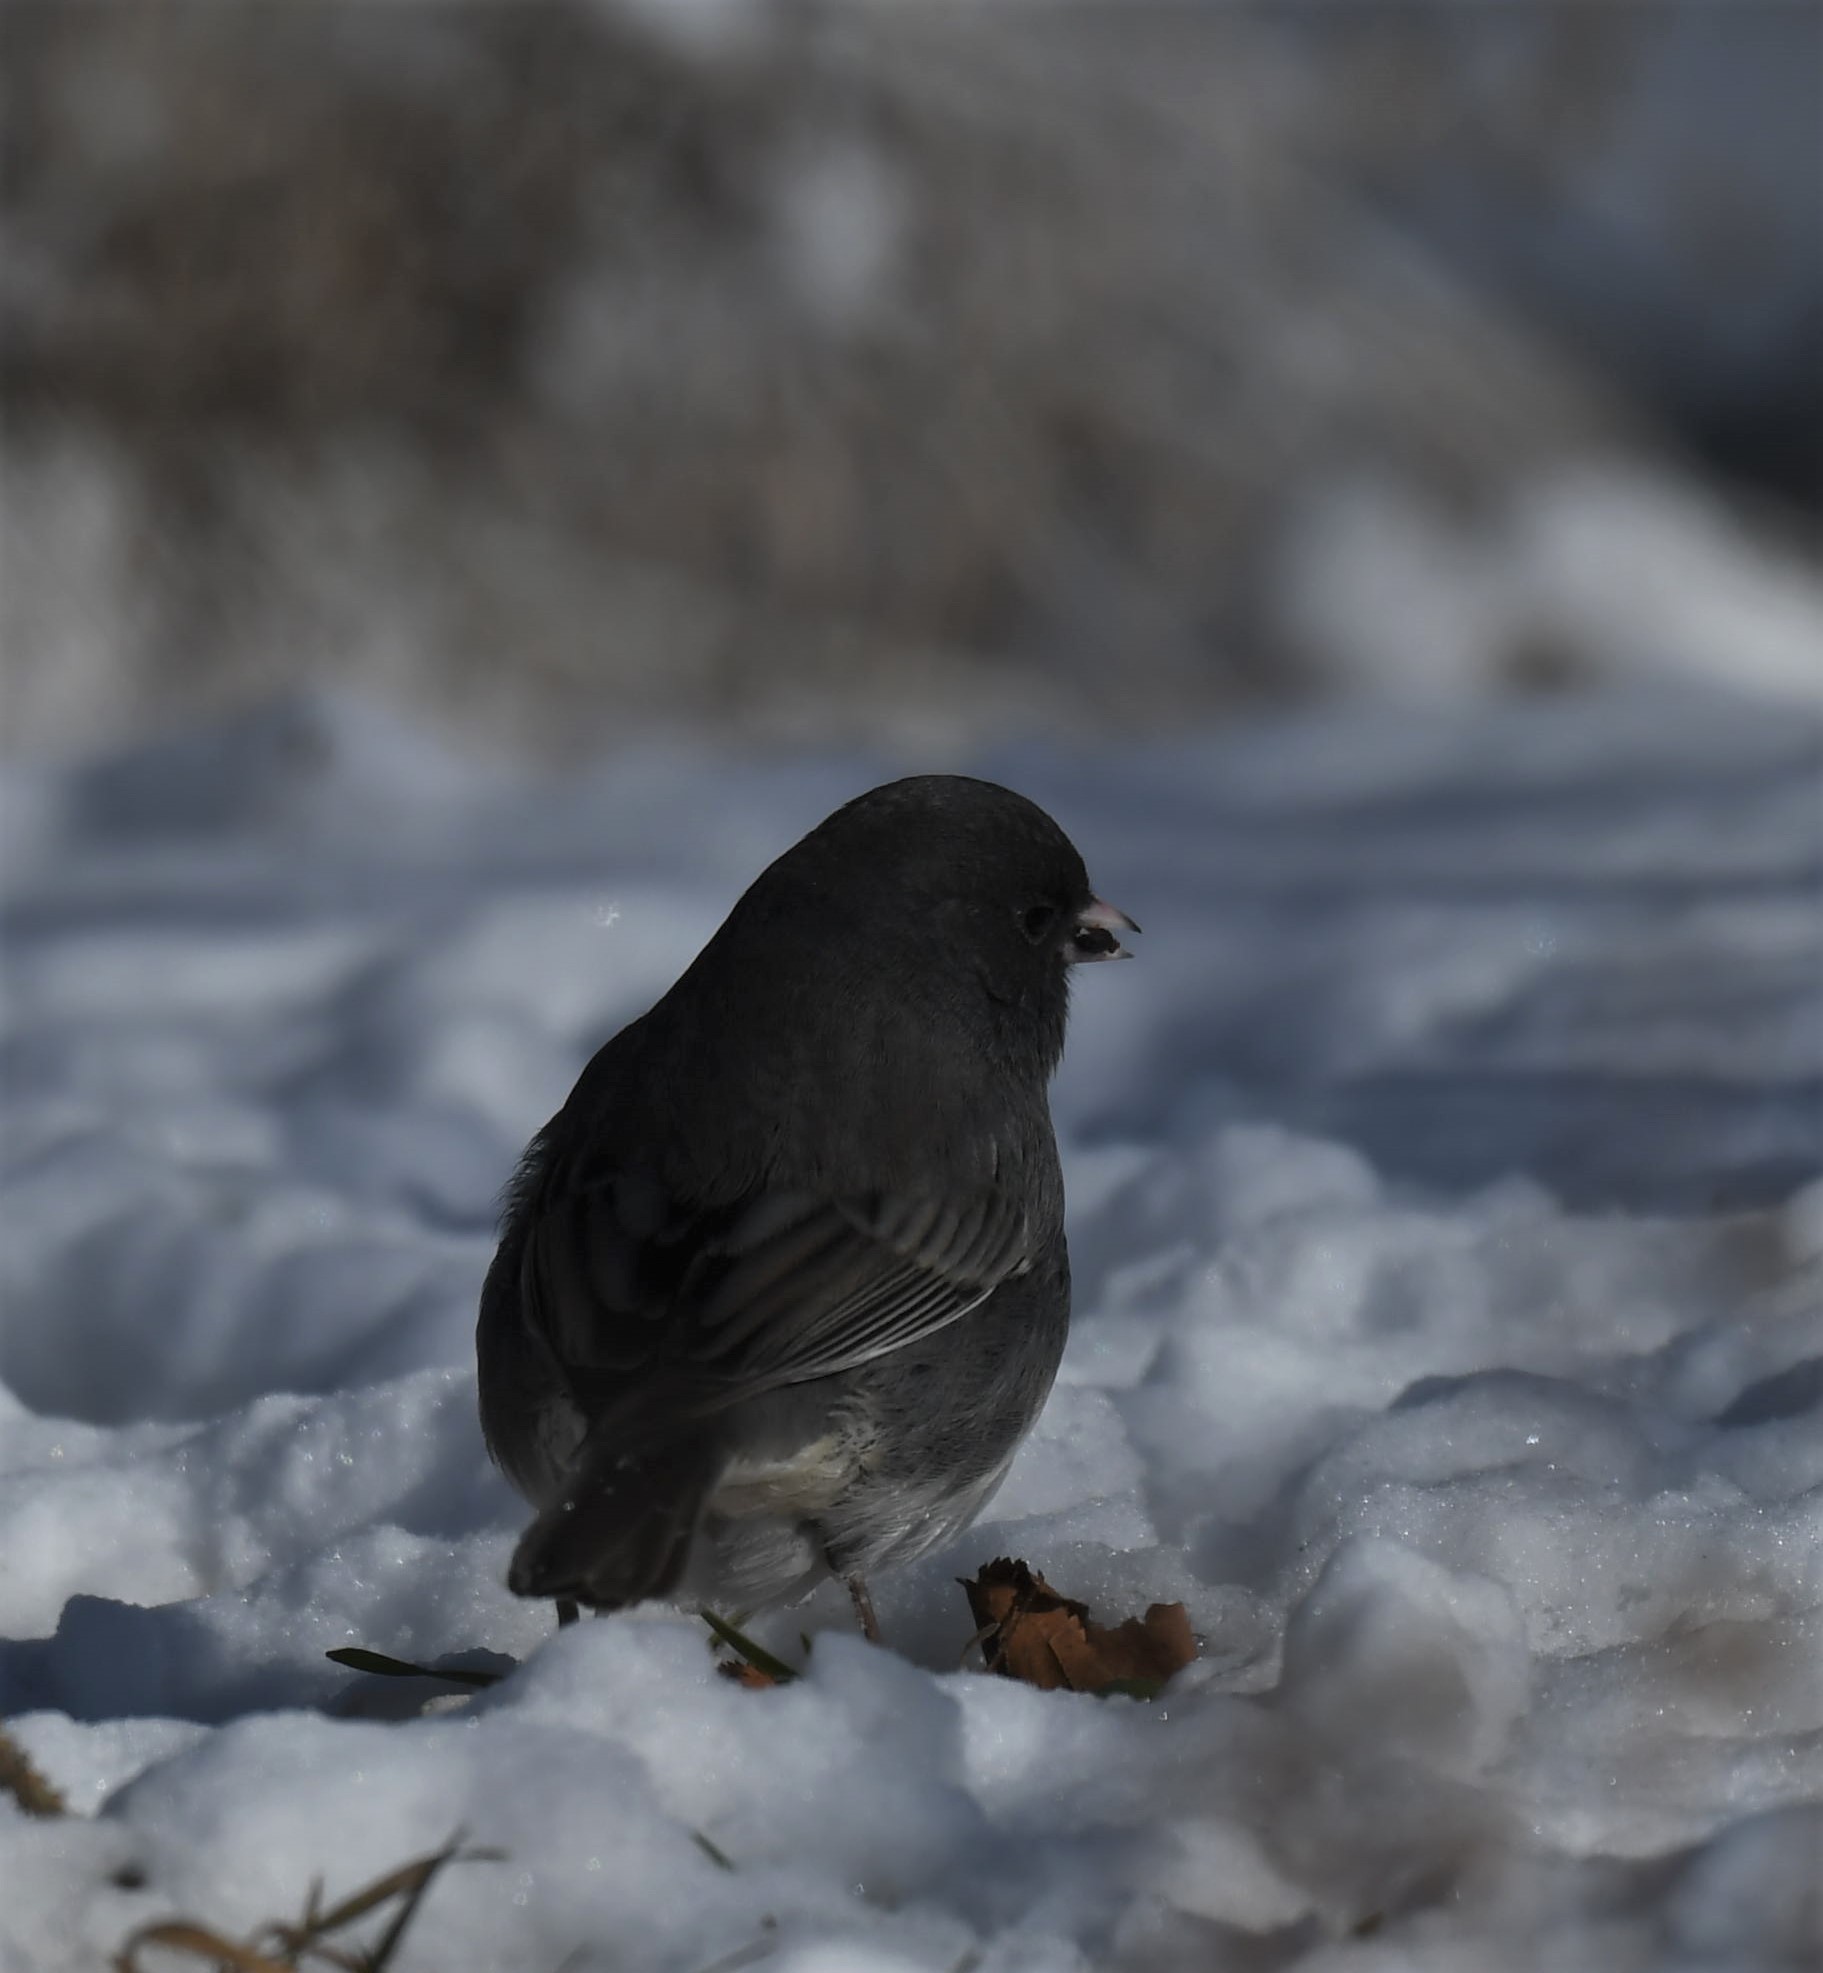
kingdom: Animalia
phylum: Chordata
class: Aves
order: Passeriformes
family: Passerellidae
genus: Junco
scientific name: Junco hyemalis
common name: Dark-eyed junco
